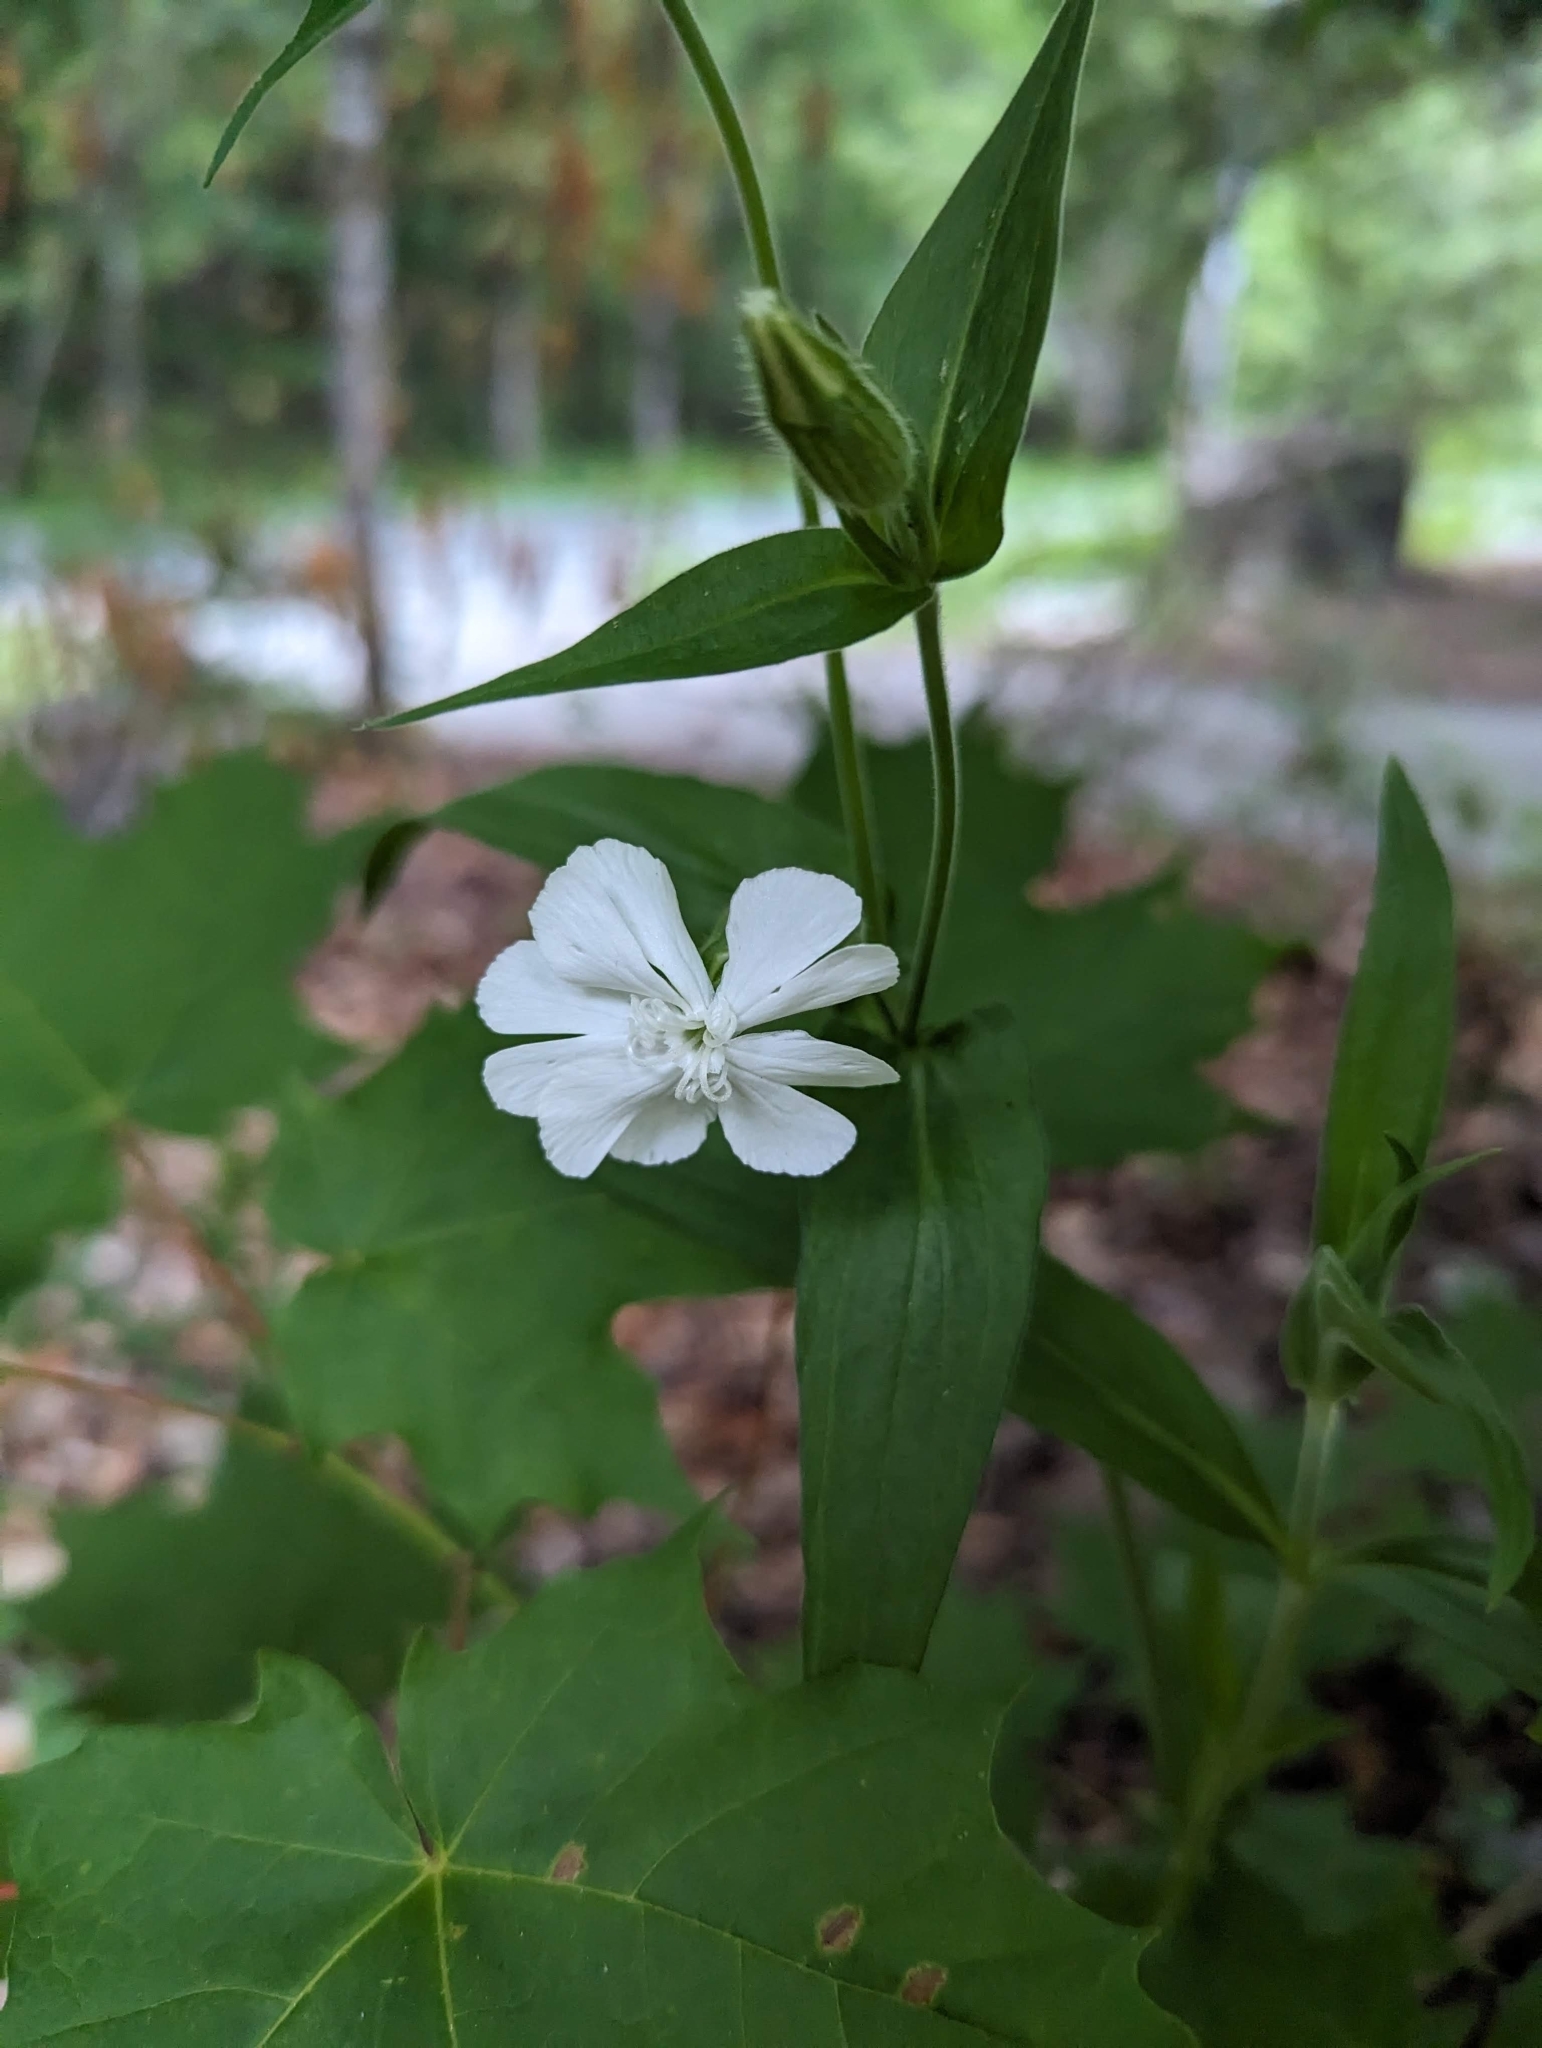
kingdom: Plantae
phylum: Tracheophyta
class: Magnoliopsida
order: Caryophyllales
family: Caryophyllaceae
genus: Silene
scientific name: Silene latifolia
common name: White campion
